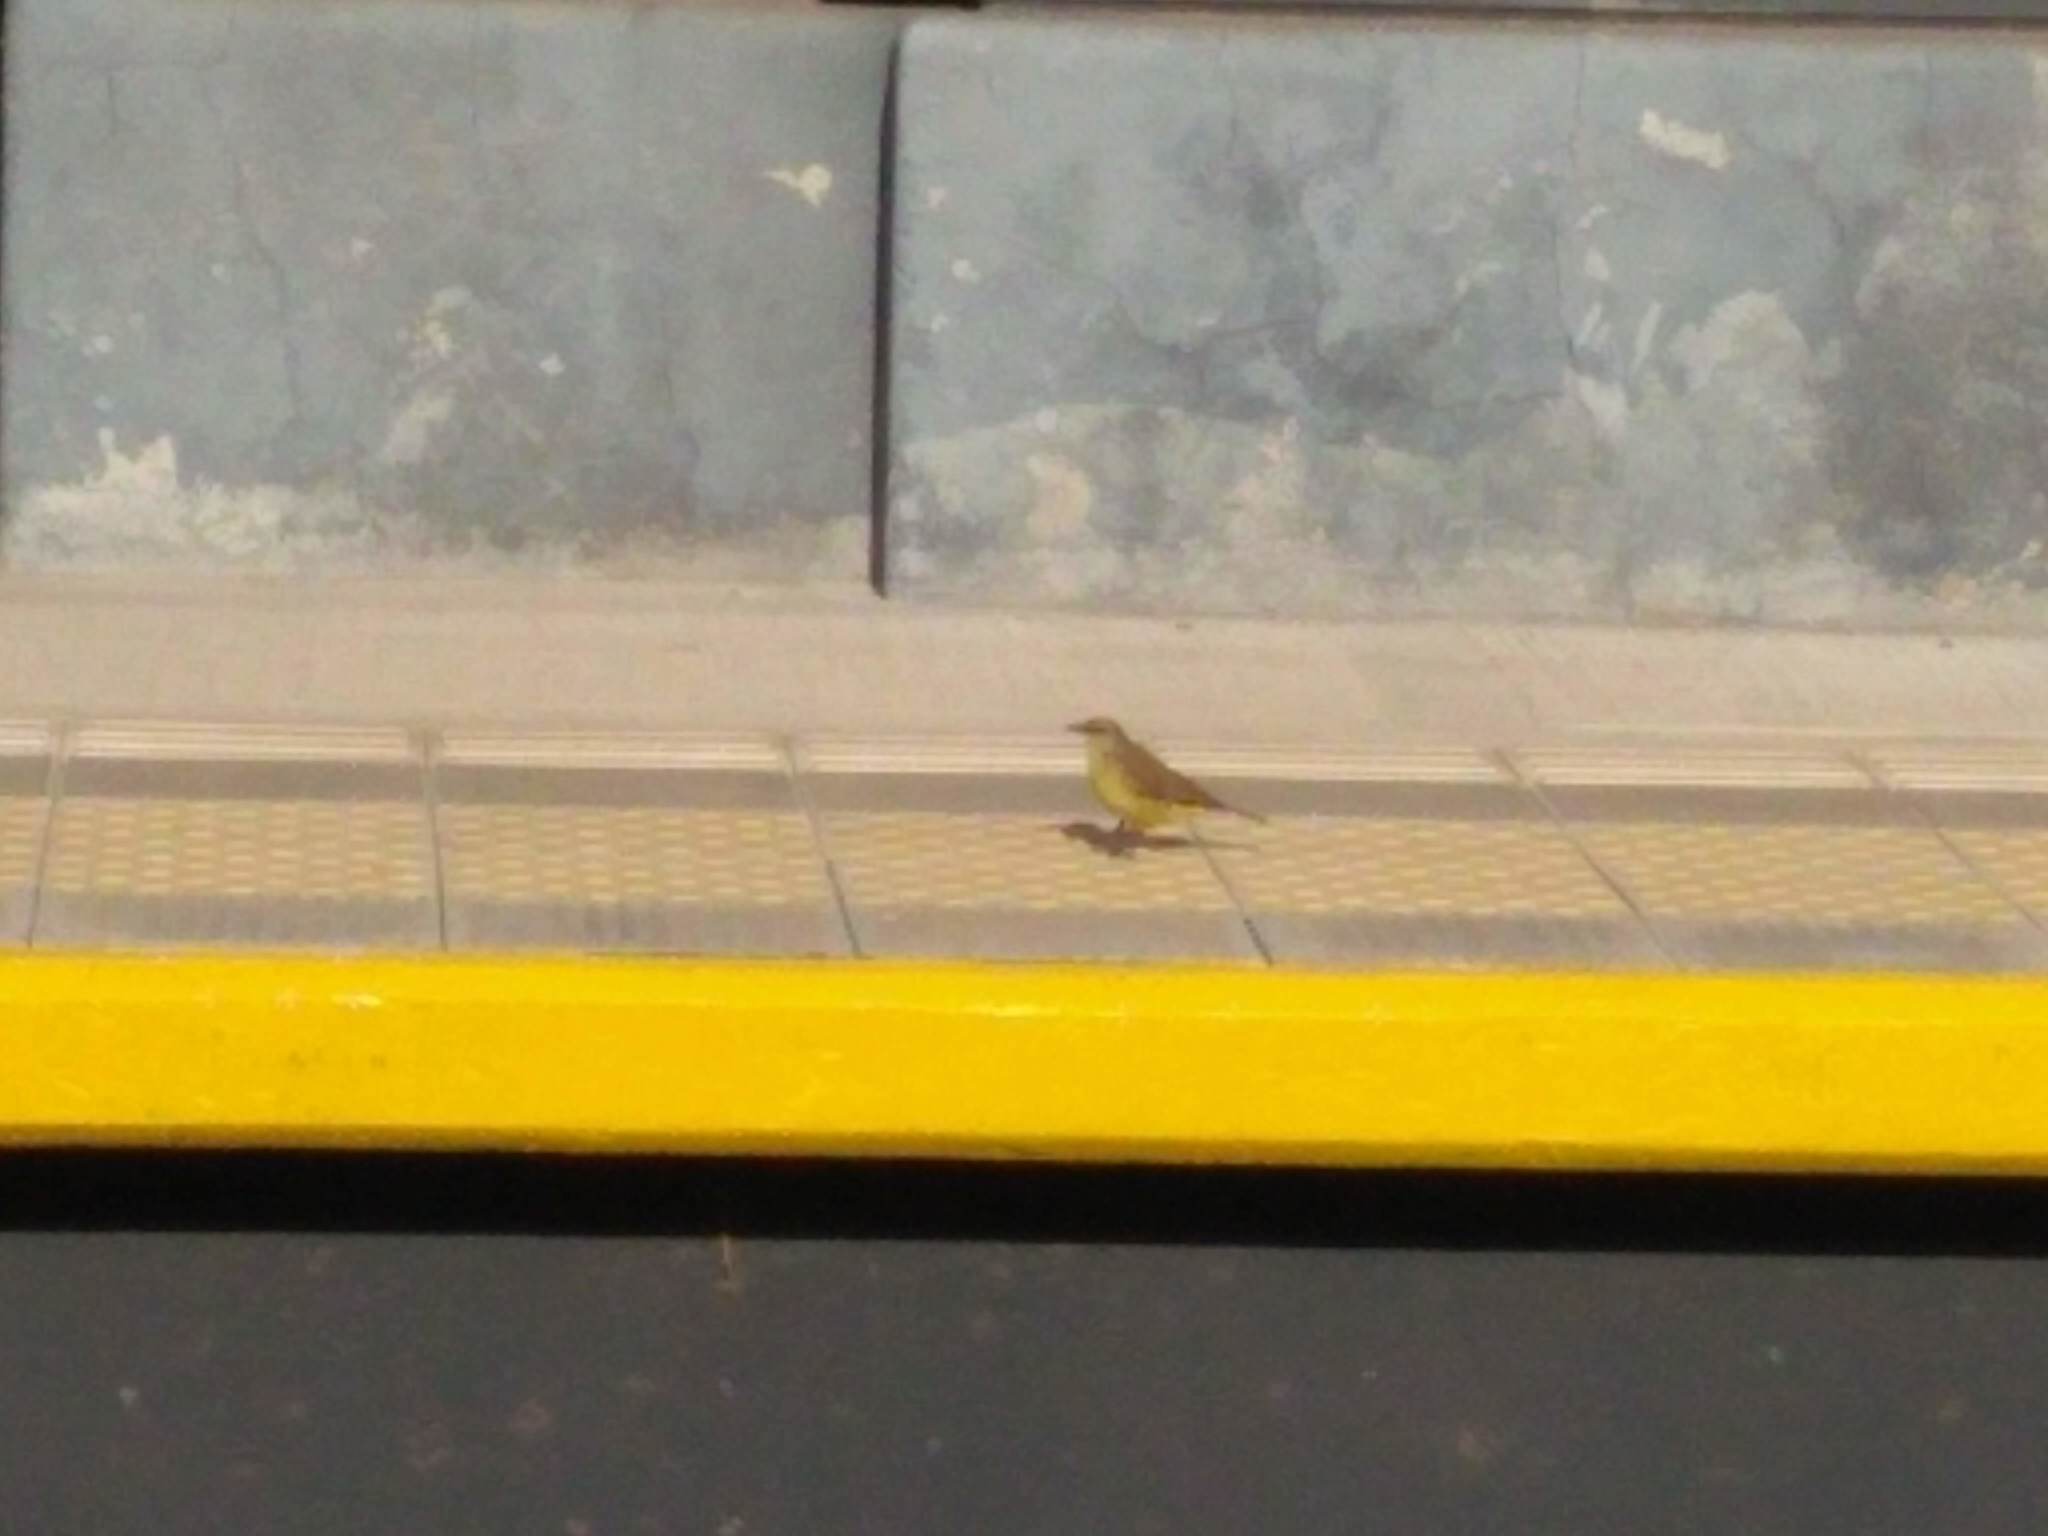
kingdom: Animalia
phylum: Chordata
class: Aves
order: Passeriformes
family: Tyrannidae
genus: Machetornis
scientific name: Machetornis rixosa
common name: Cattle tyrant
